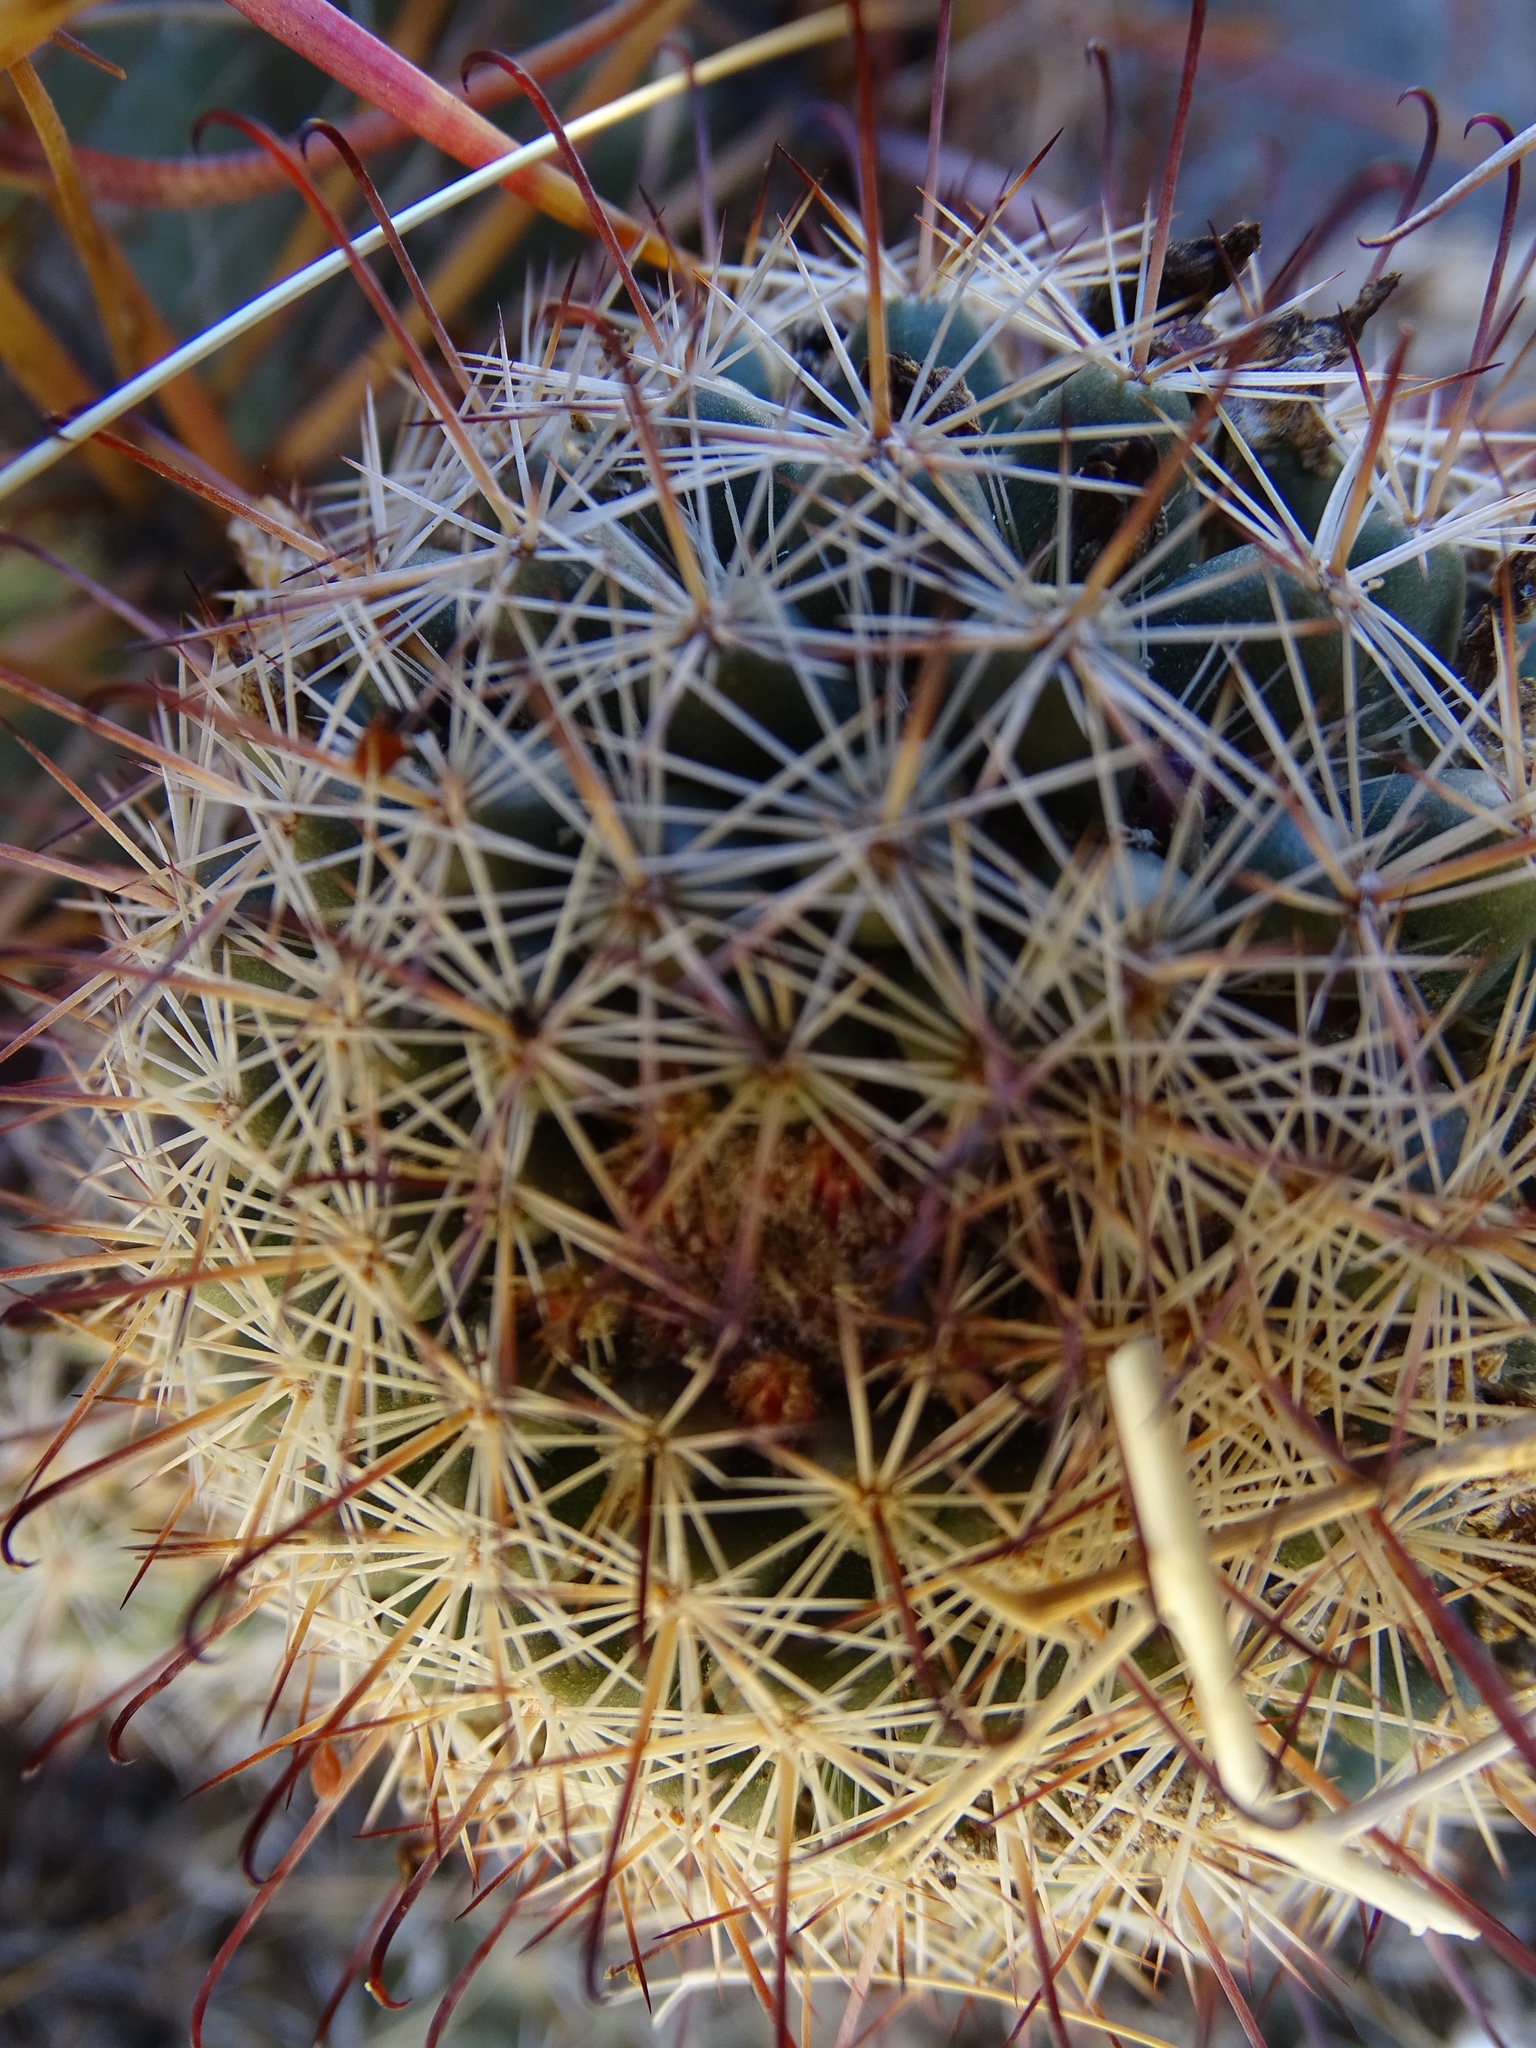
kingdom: Plantae
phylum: Tracheophyta
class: Magnoliopsida
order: Caryophyllales
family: Cactaceae
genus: Cochemiea
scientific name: Cochemiea dioica
